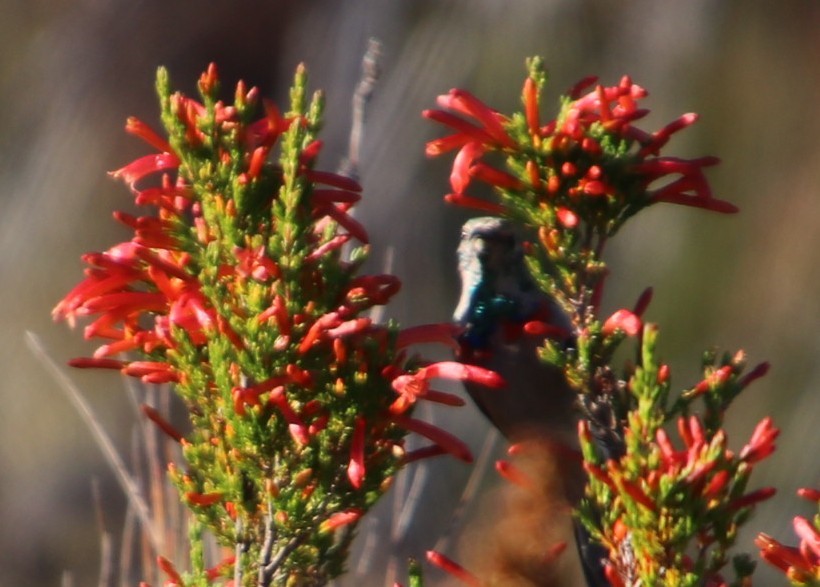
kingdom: Plantae
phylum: Tracheophyta
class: Magnoliopsida
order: Ericales
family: Ericaceae
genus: Erica
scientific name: Erica curviflora
